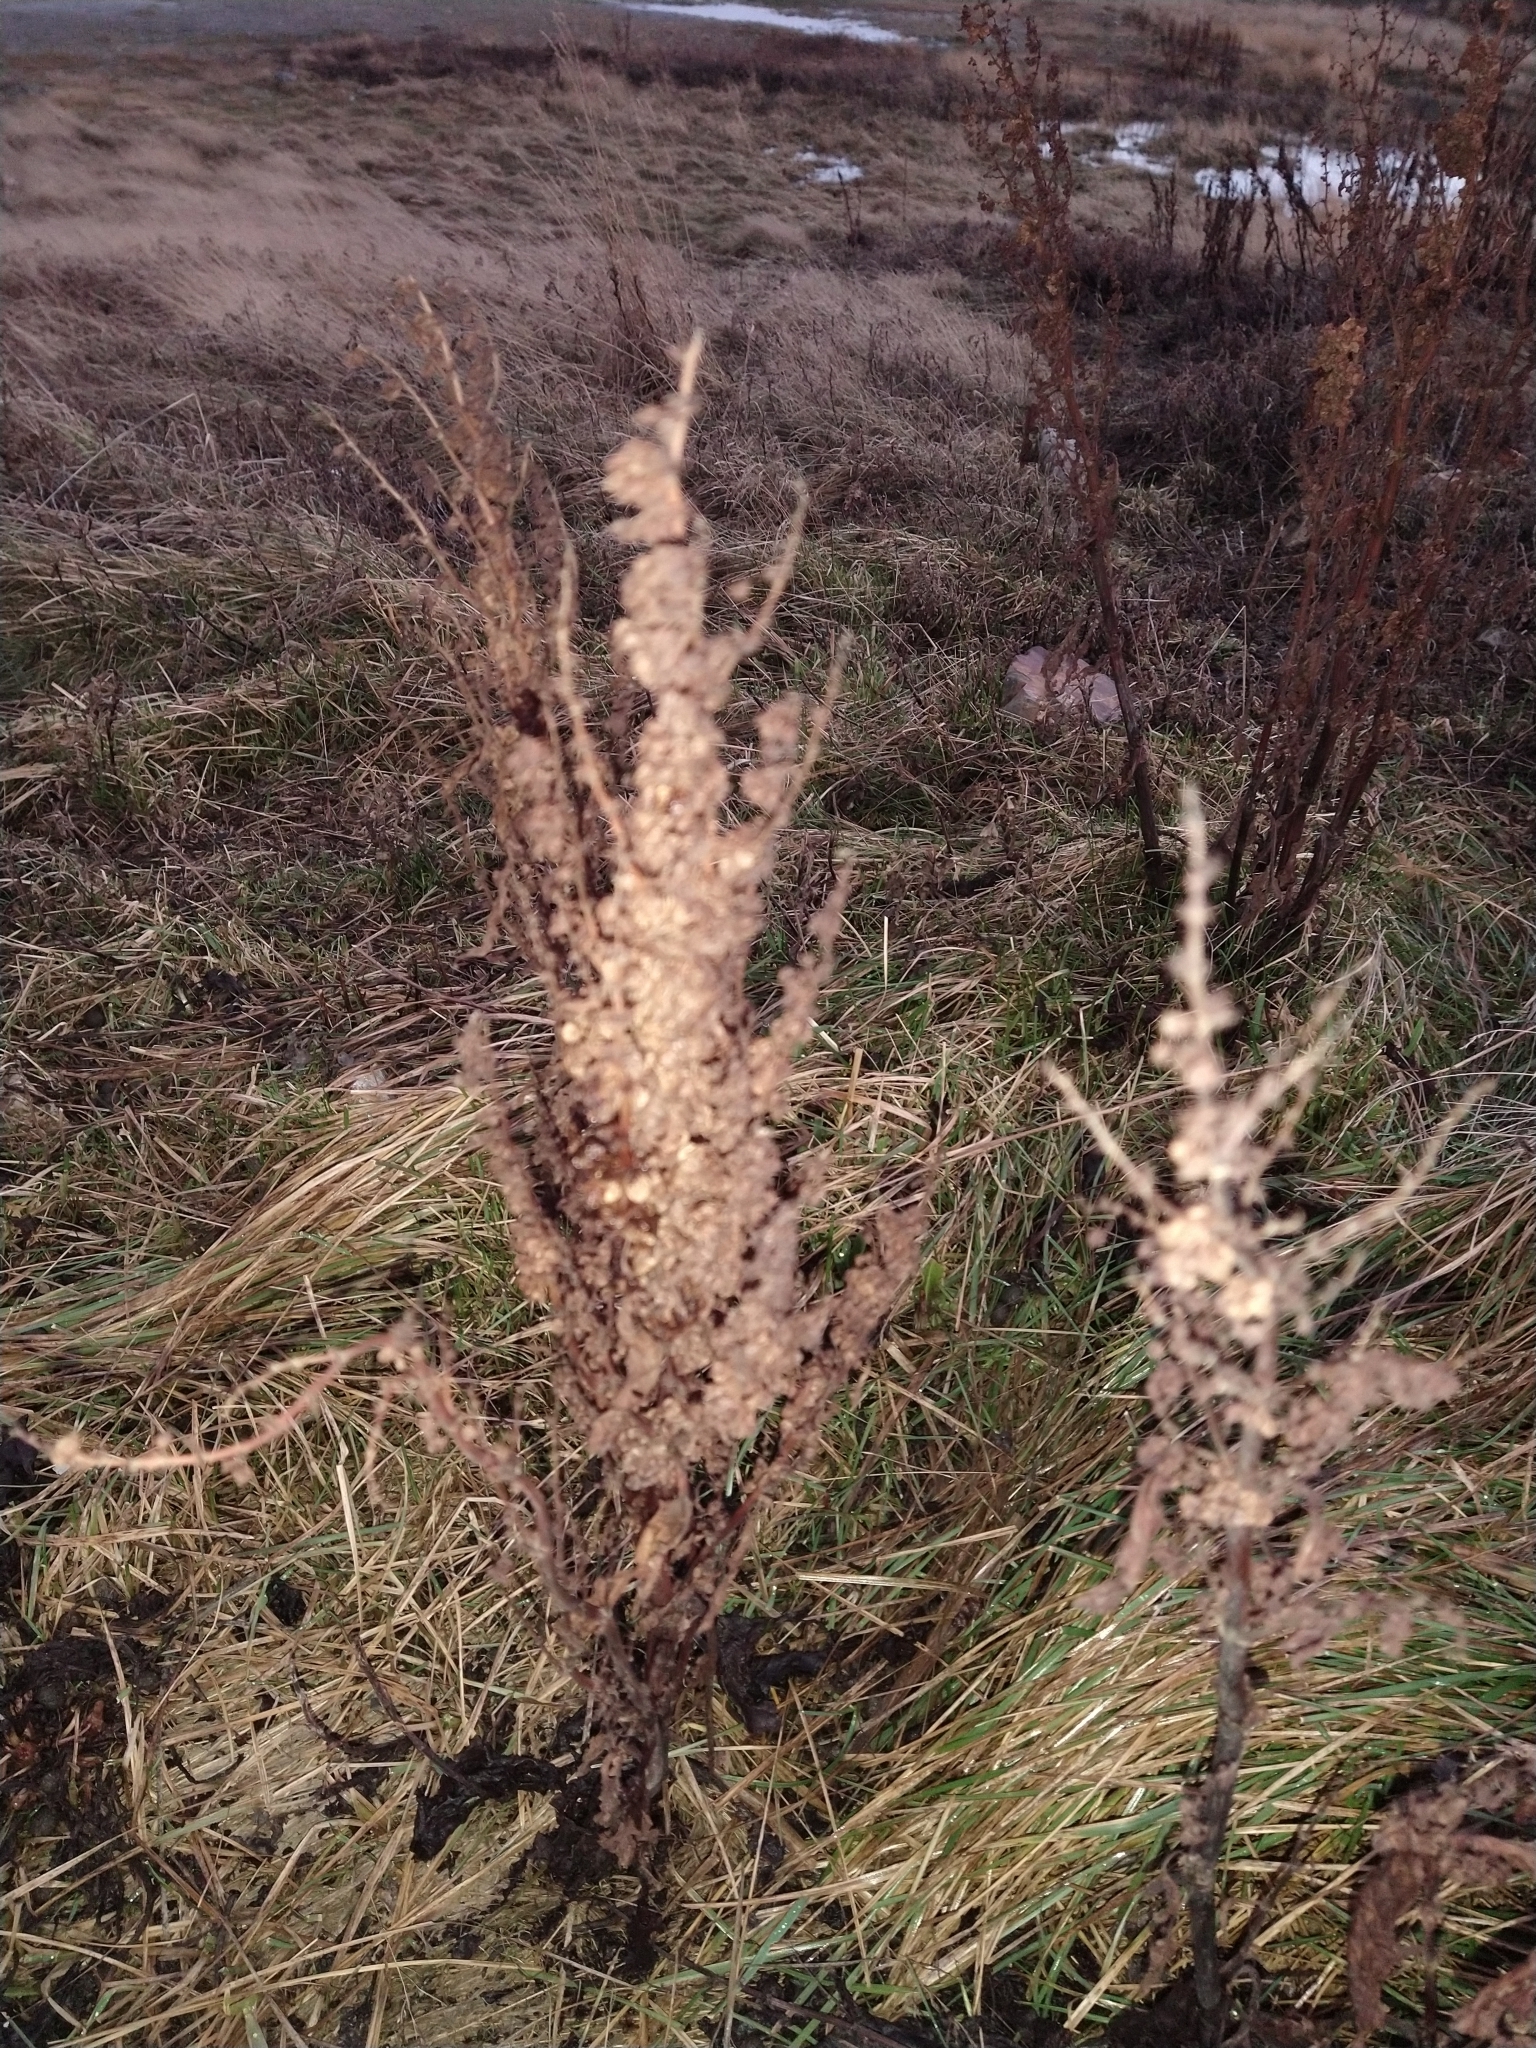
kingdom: Plantae
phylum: Tracheophyta
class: Magnoliopsida
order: Caryophyllales
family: Polygonaceae
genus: Rumex
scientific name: Rumex crispus
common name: Curled dock
